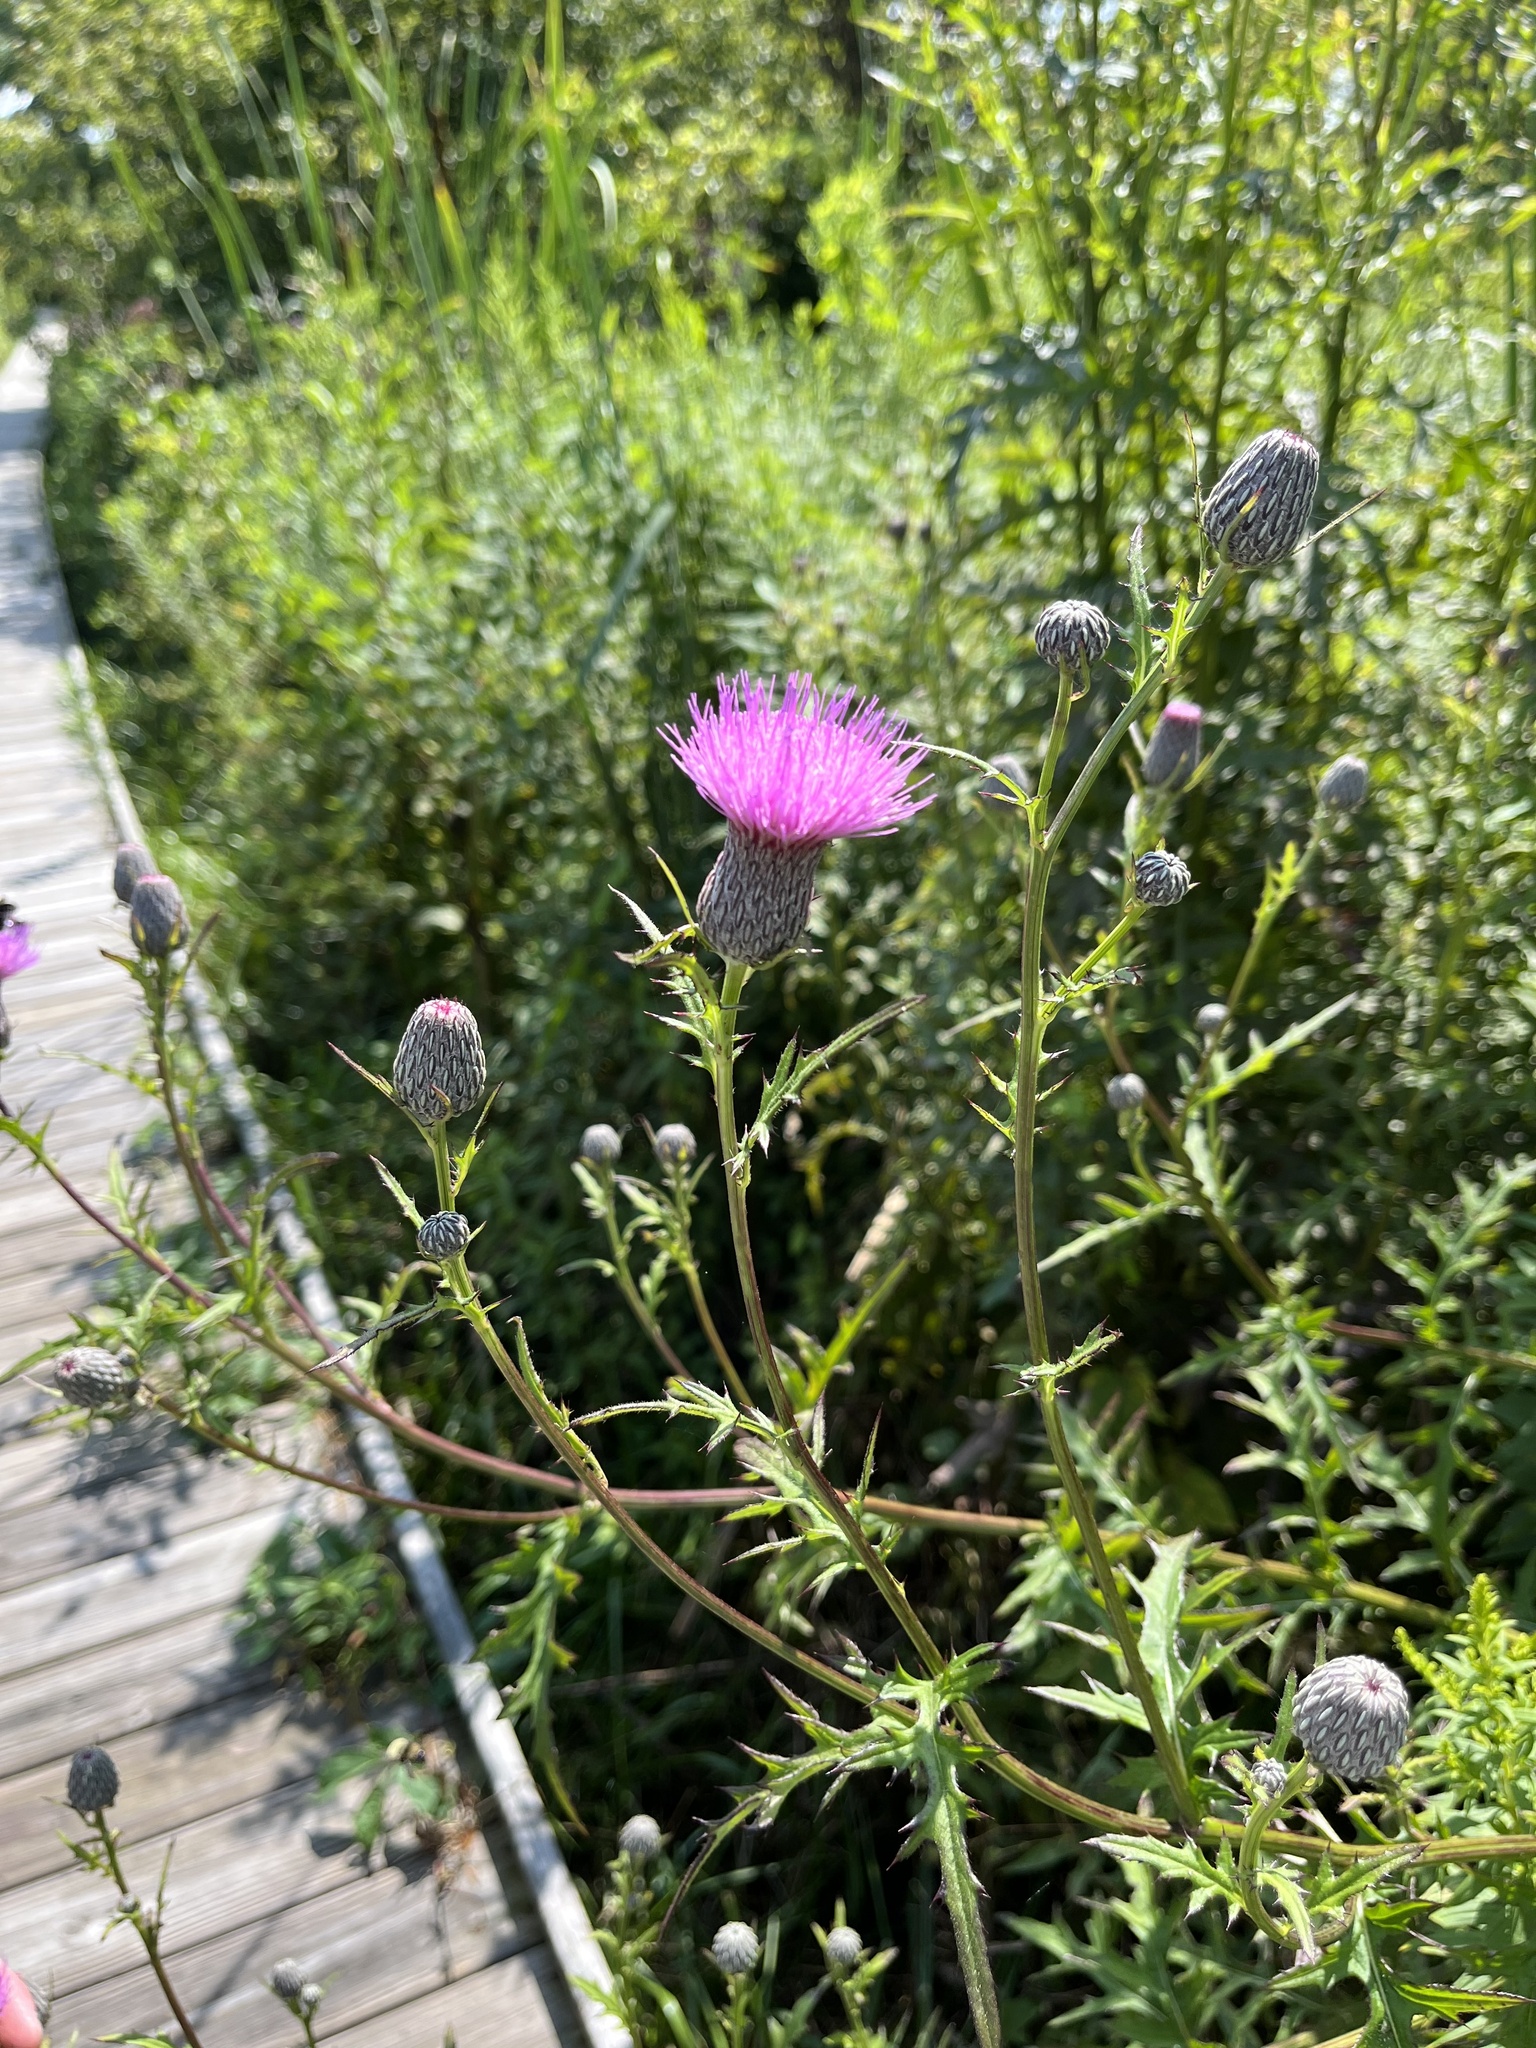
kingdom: Plantae
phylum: Tracheophyta
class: Magnoliopsida
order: Asterales
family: Asteraceae
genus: Cirsium
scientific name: Cirsium muticum
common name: Dunce-nettle
